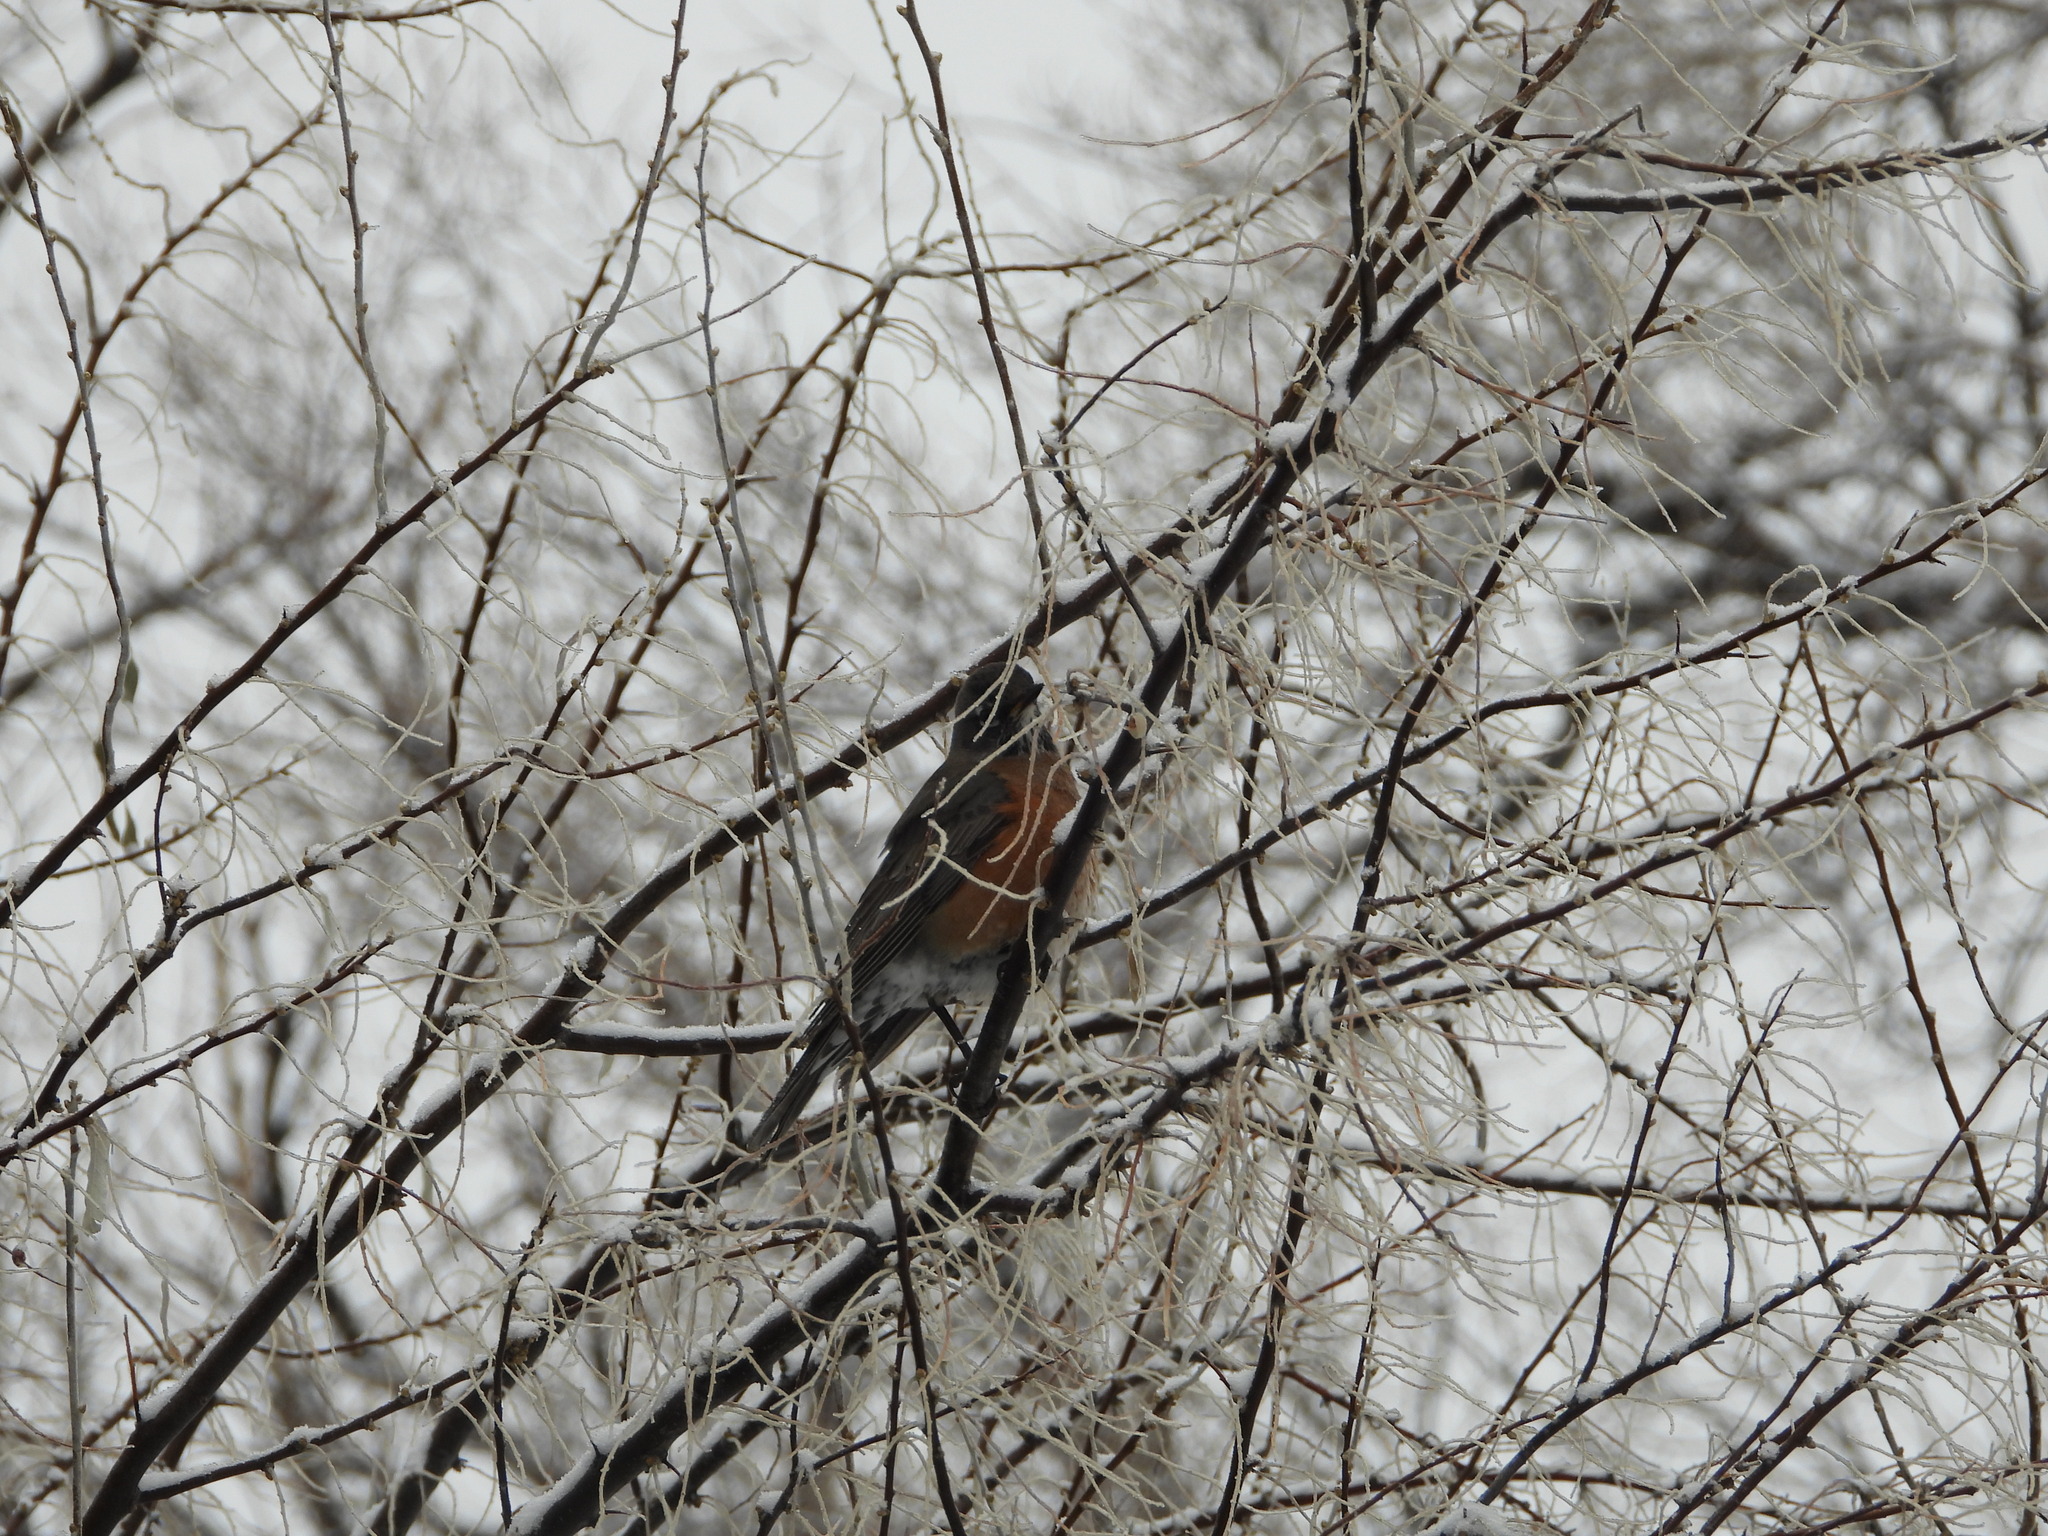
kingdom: Animalia
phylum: Chordata
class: Aves
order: Passeriformes
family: Turdidae
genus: Turdus
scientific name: Turdus migratorius
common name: American robin
